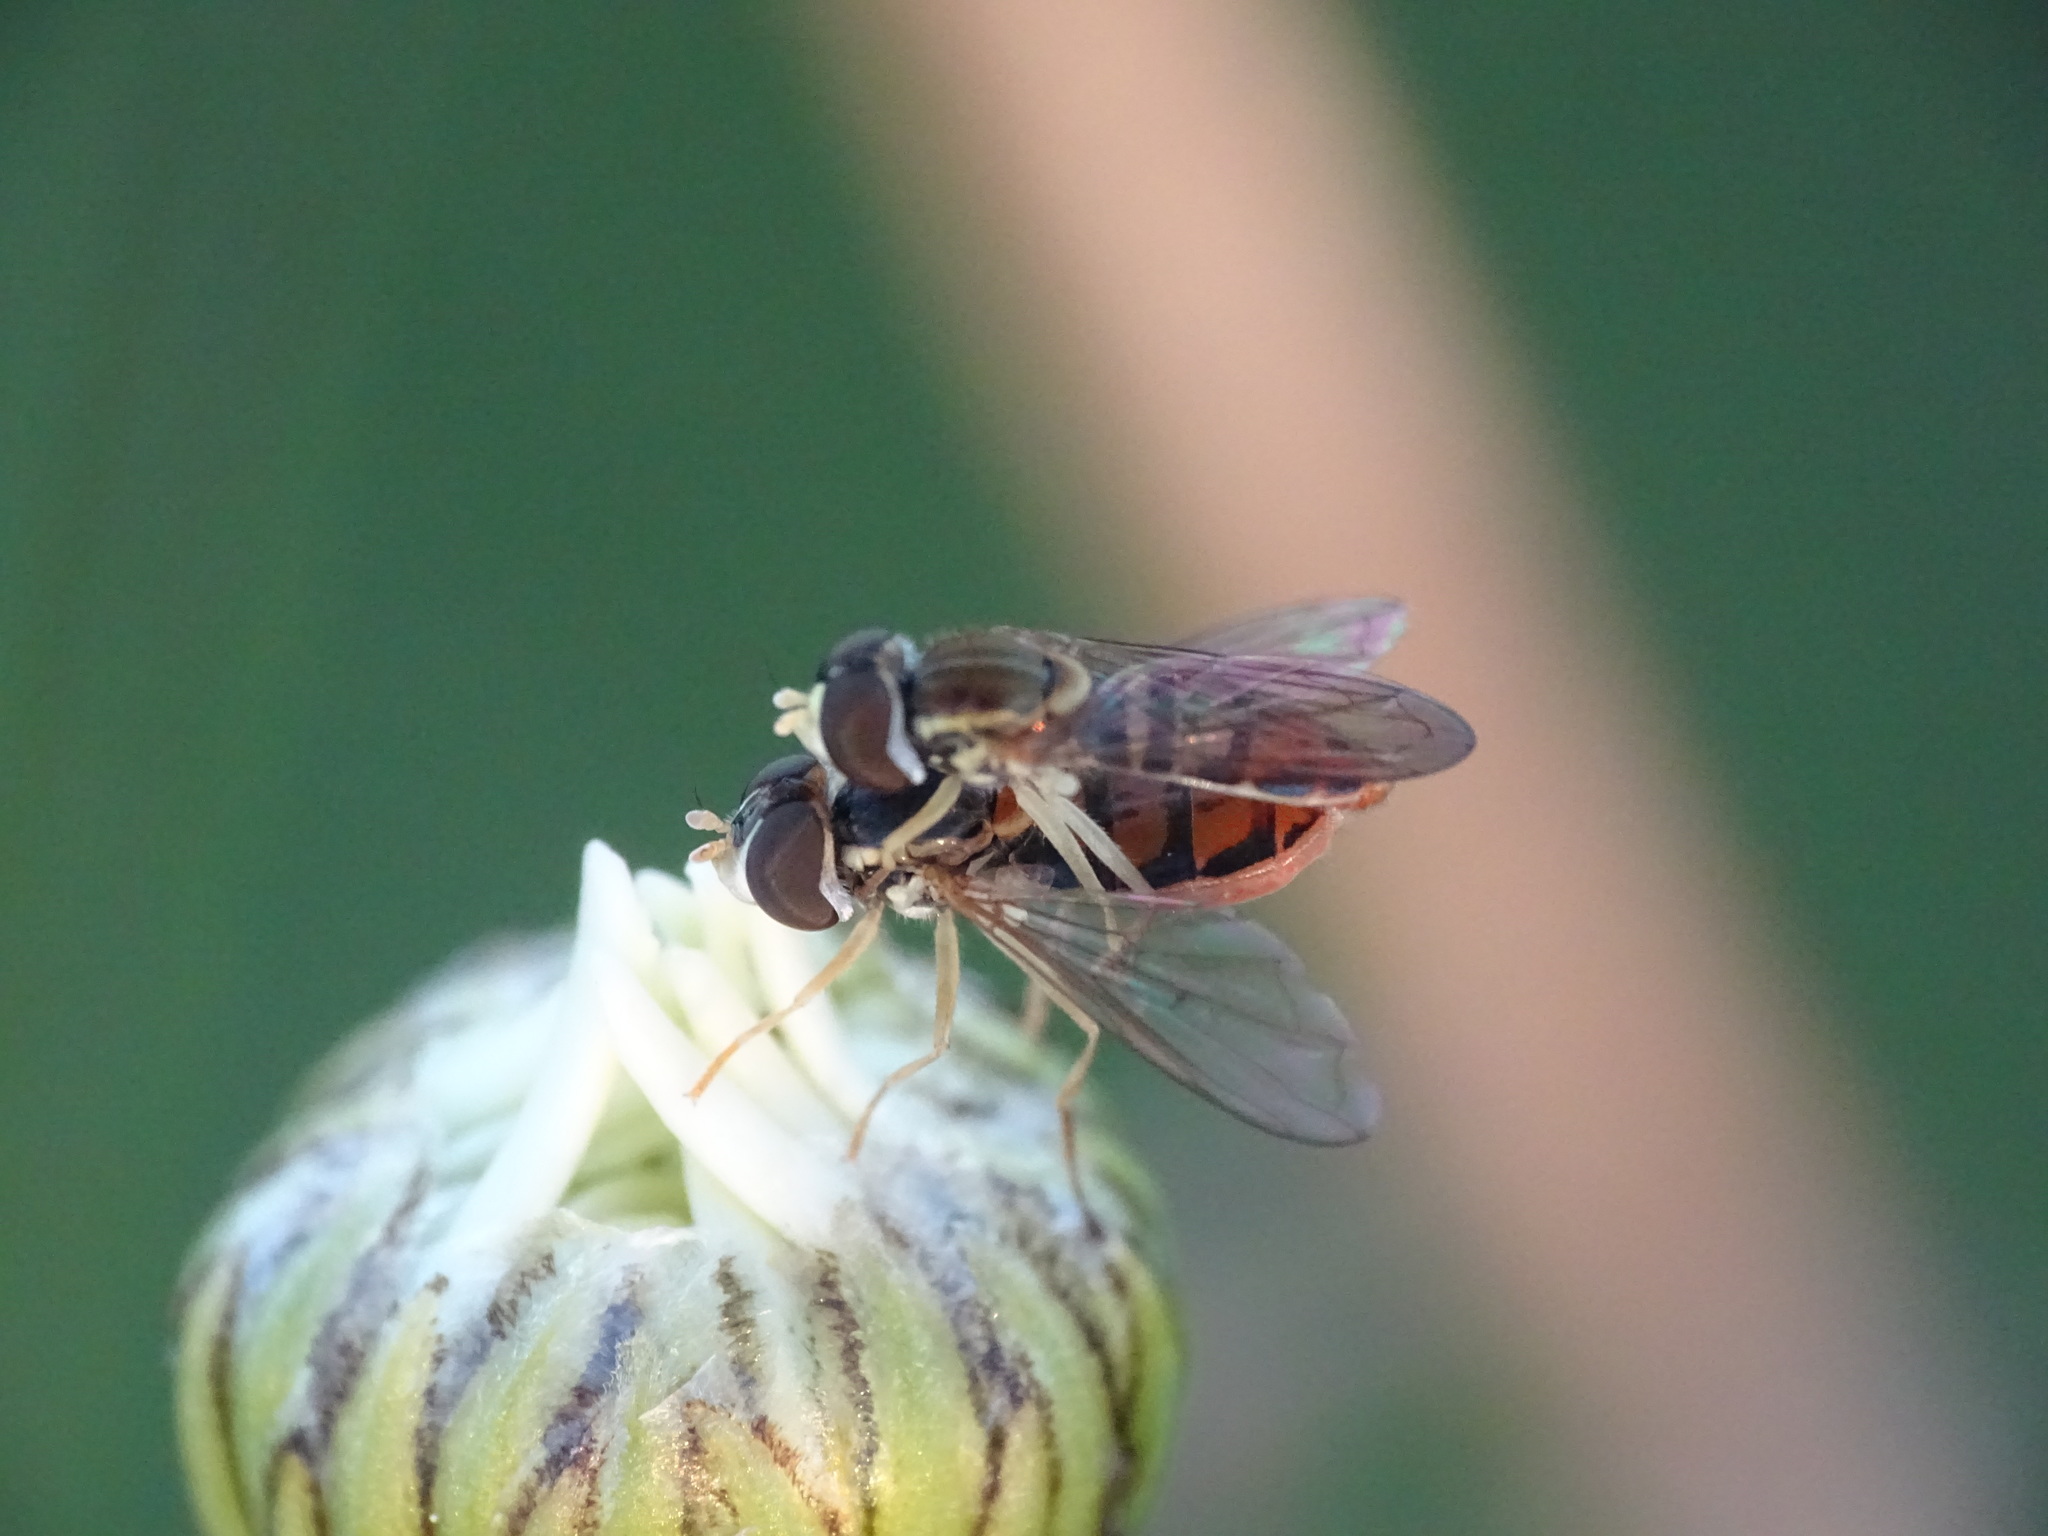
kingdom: Animalia
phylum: Arthropoda
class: Insecta
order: Diptera
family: Syrphidae
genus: Toxomerus
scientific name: Toxomerus marginatus
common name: Syrphid fly
